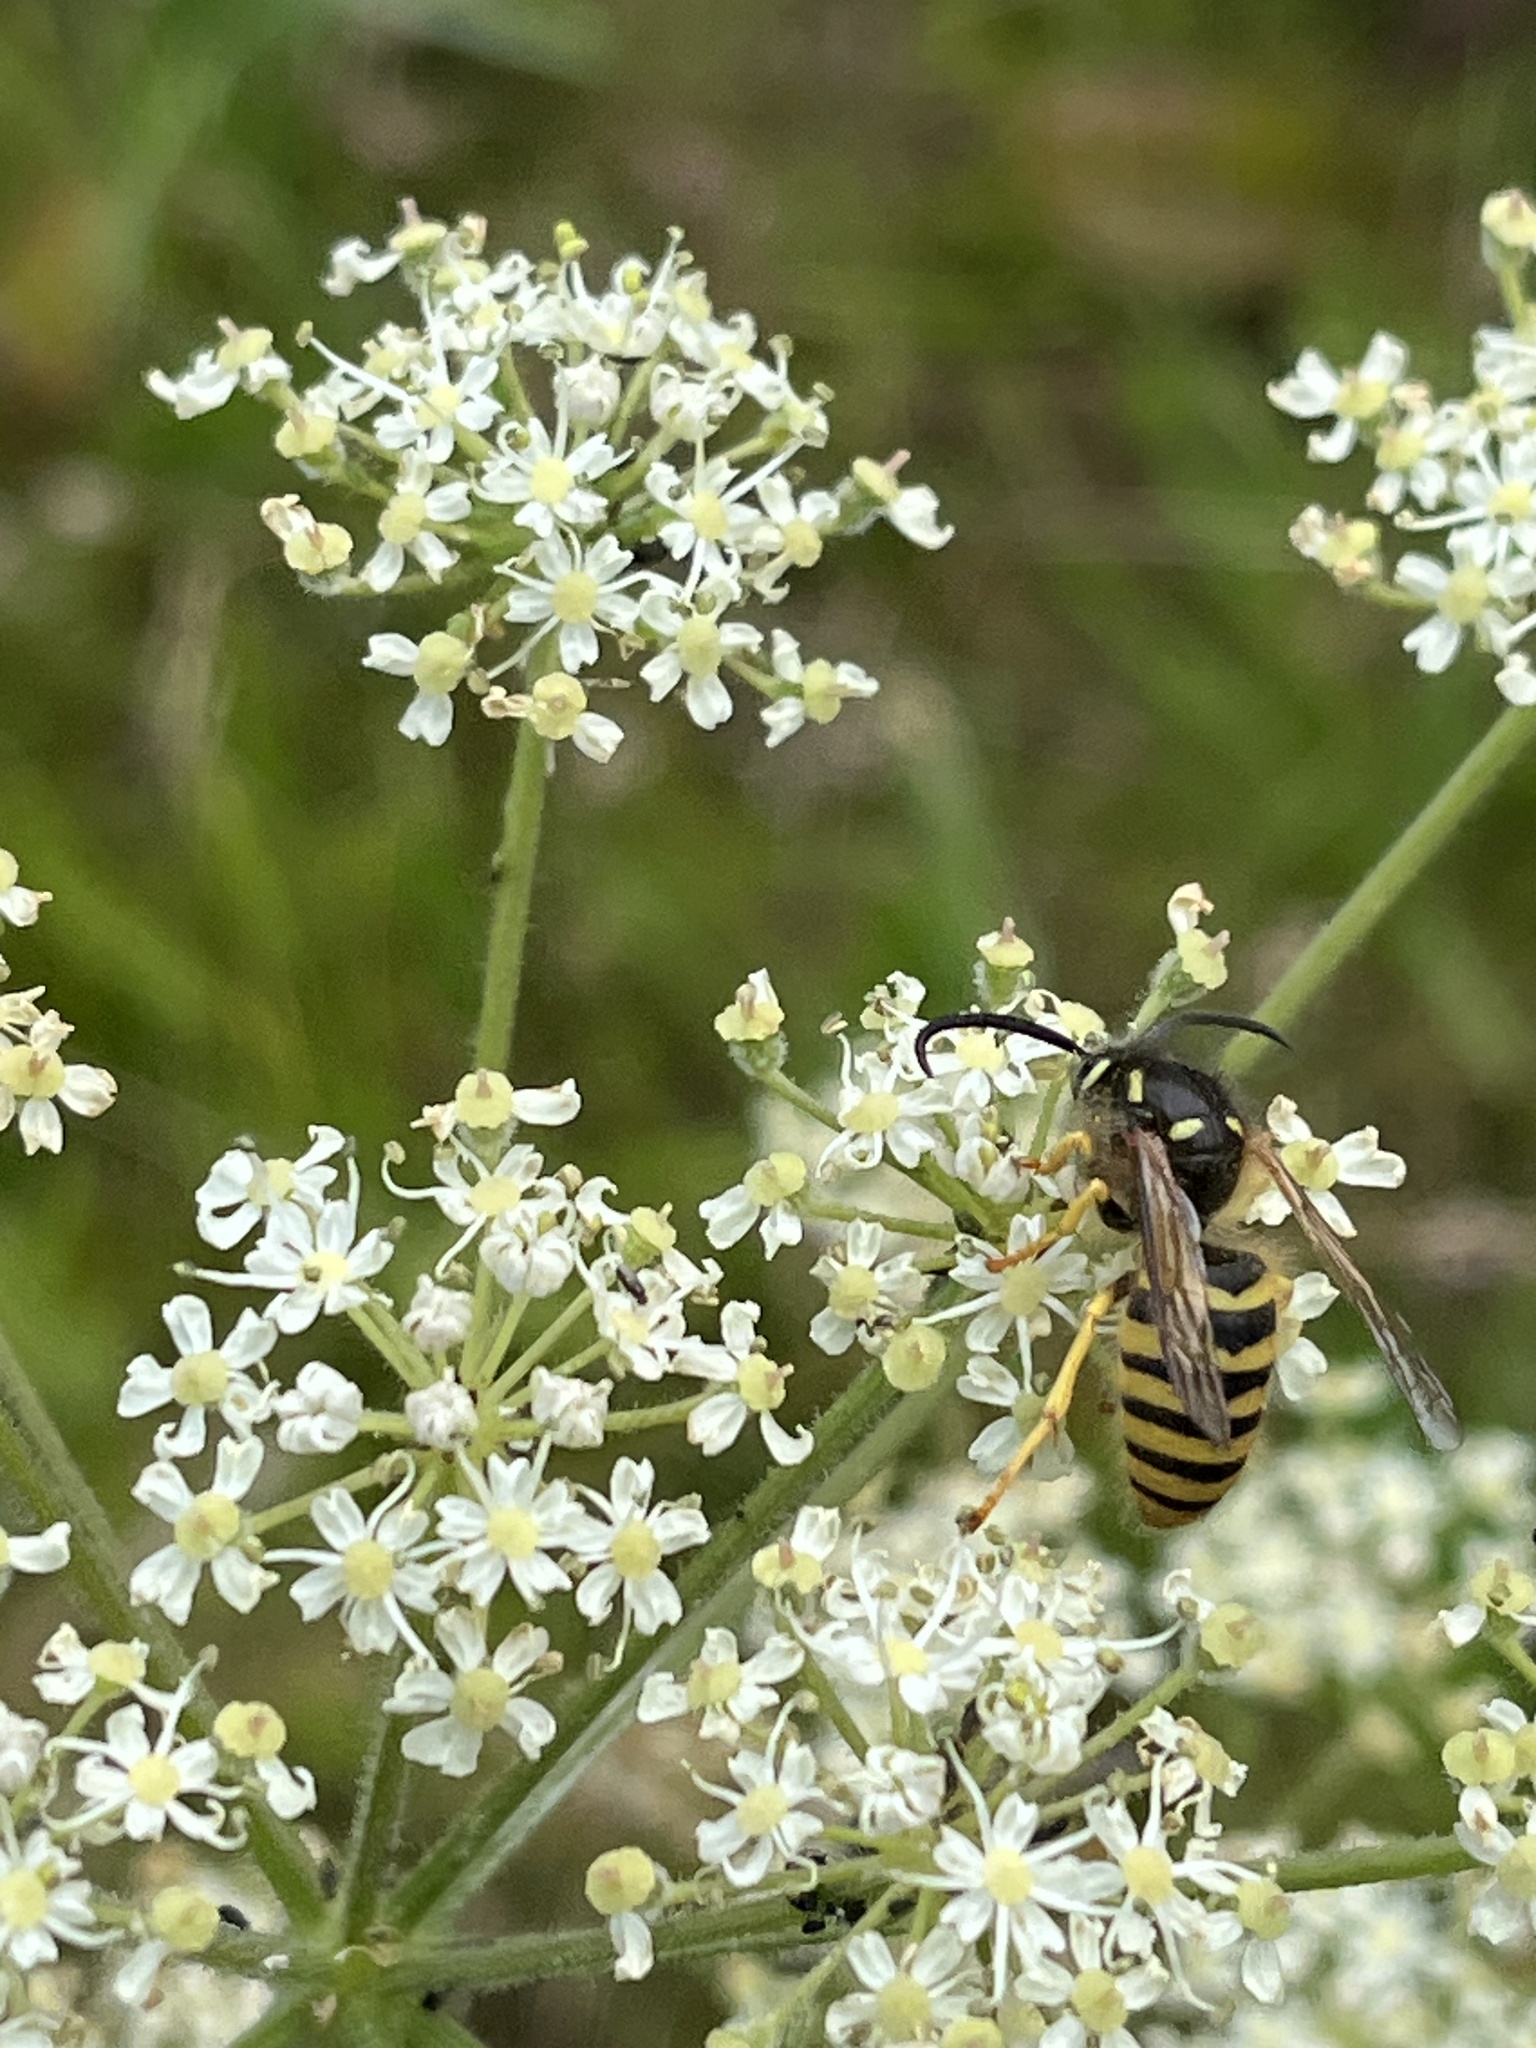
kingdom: Animalia
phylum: Arthropoda
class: Insecta
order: Hymenoptera
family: Vespidae
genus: Dolichovespula
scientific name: Dolichovespula sylvestris
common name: Tree wasp
